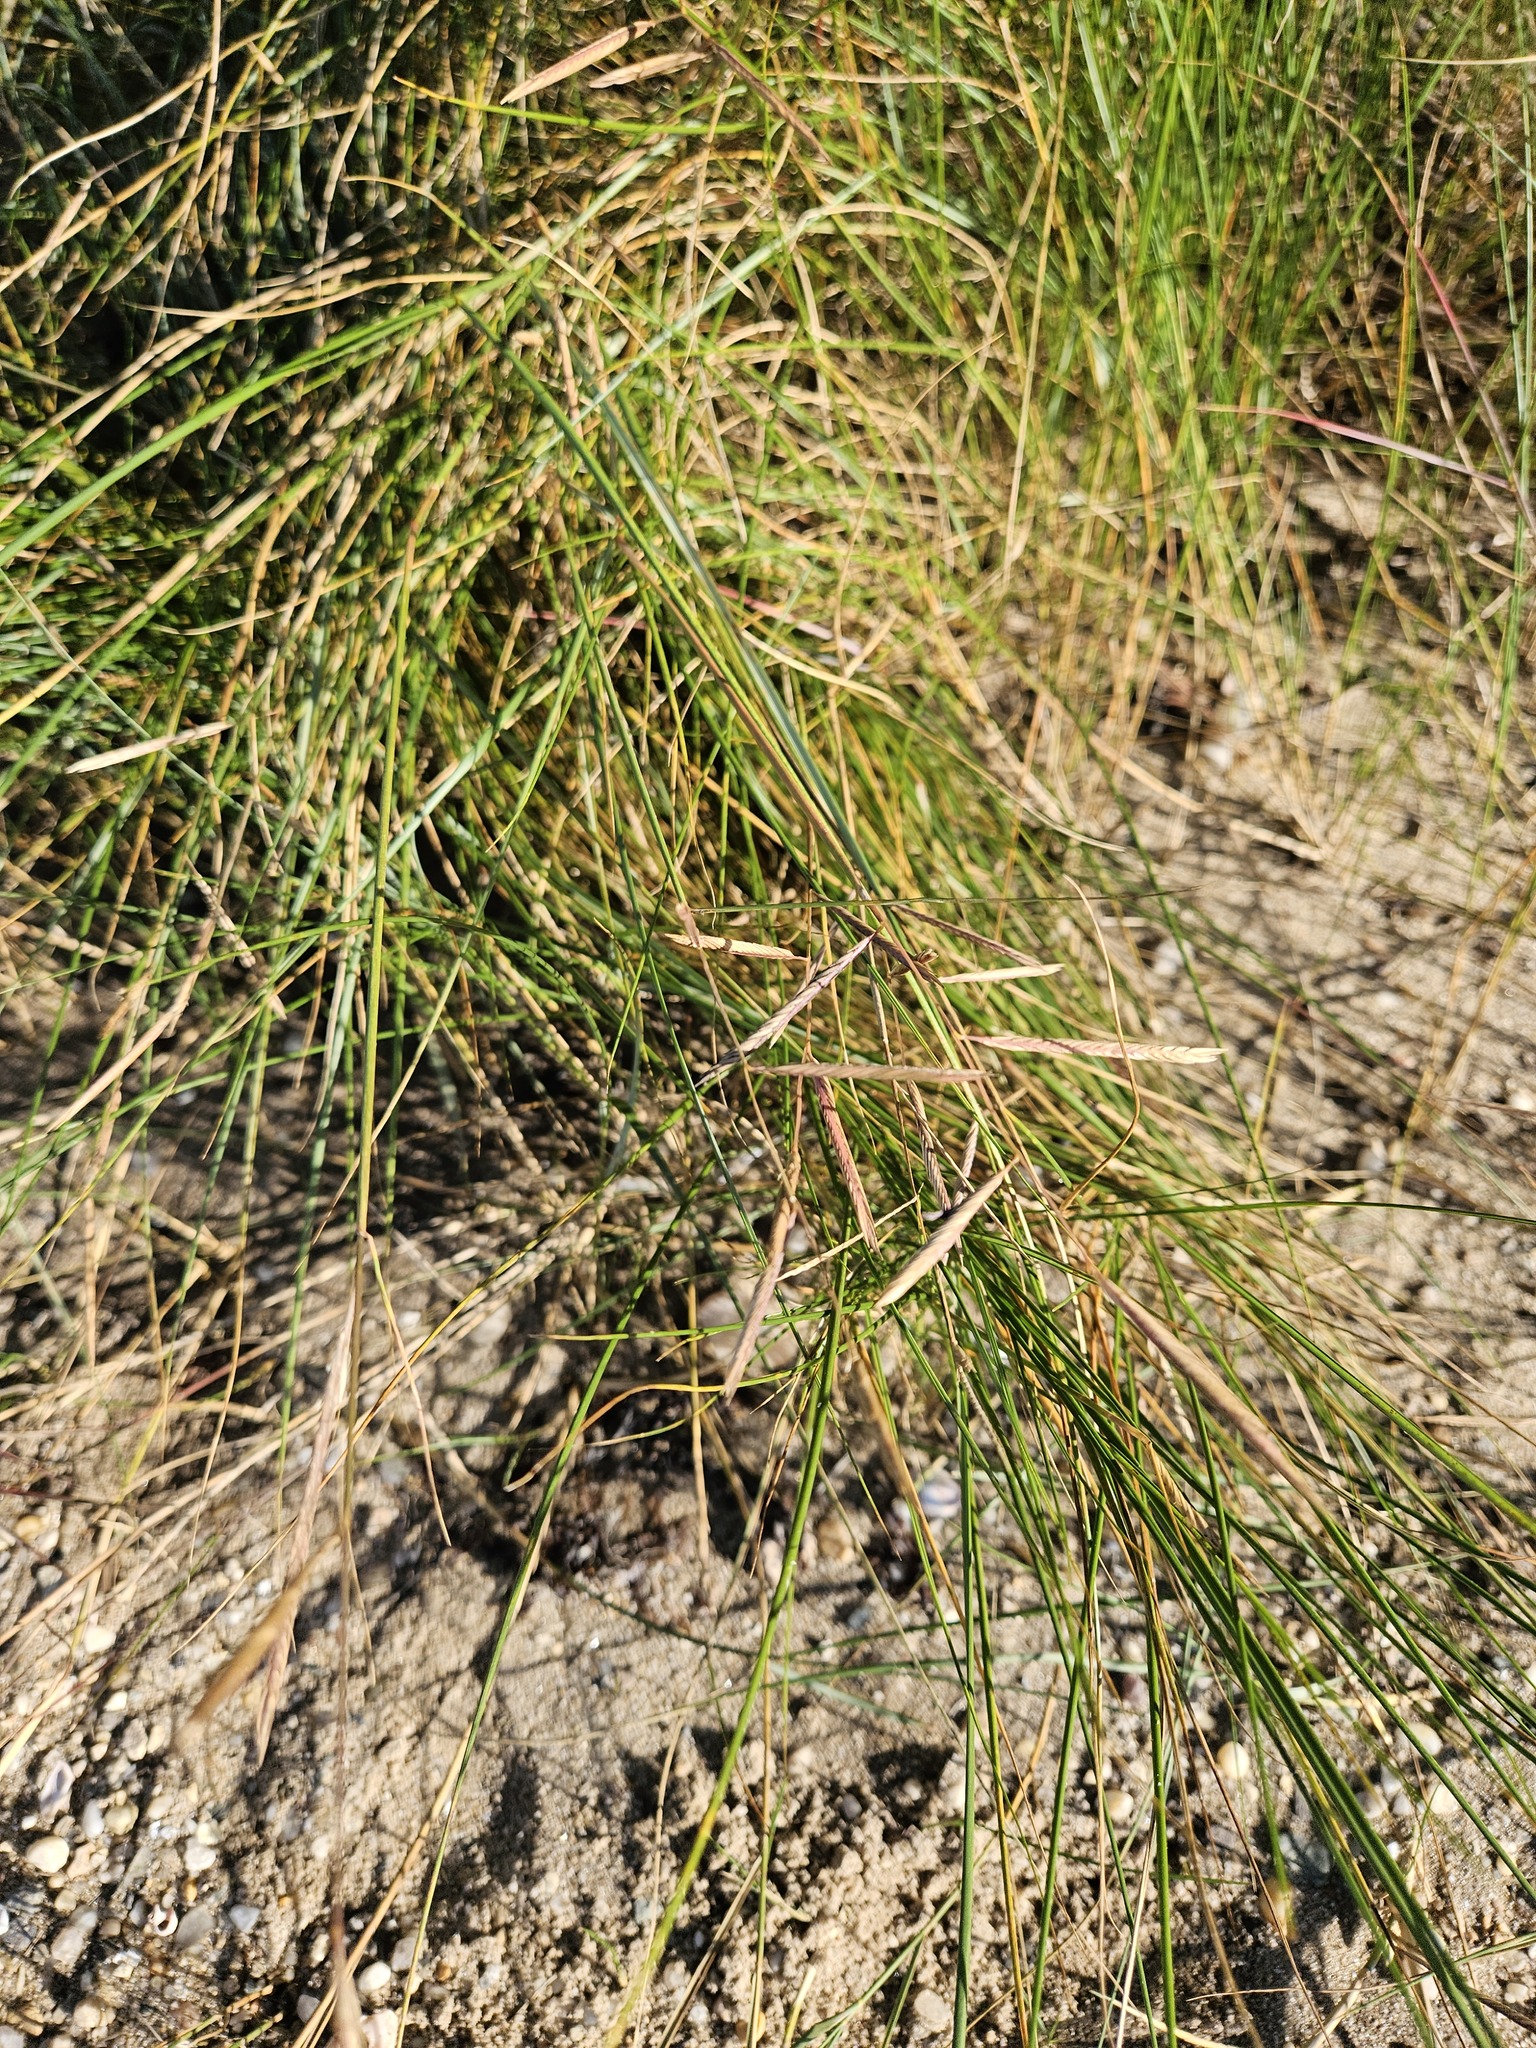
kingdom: Plantae
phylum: Tracheophyta
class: Liliopsida
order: Poales
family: Poaceae
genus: Sporobolus
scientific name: Sporobolus pumilus
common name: Highwater grass
